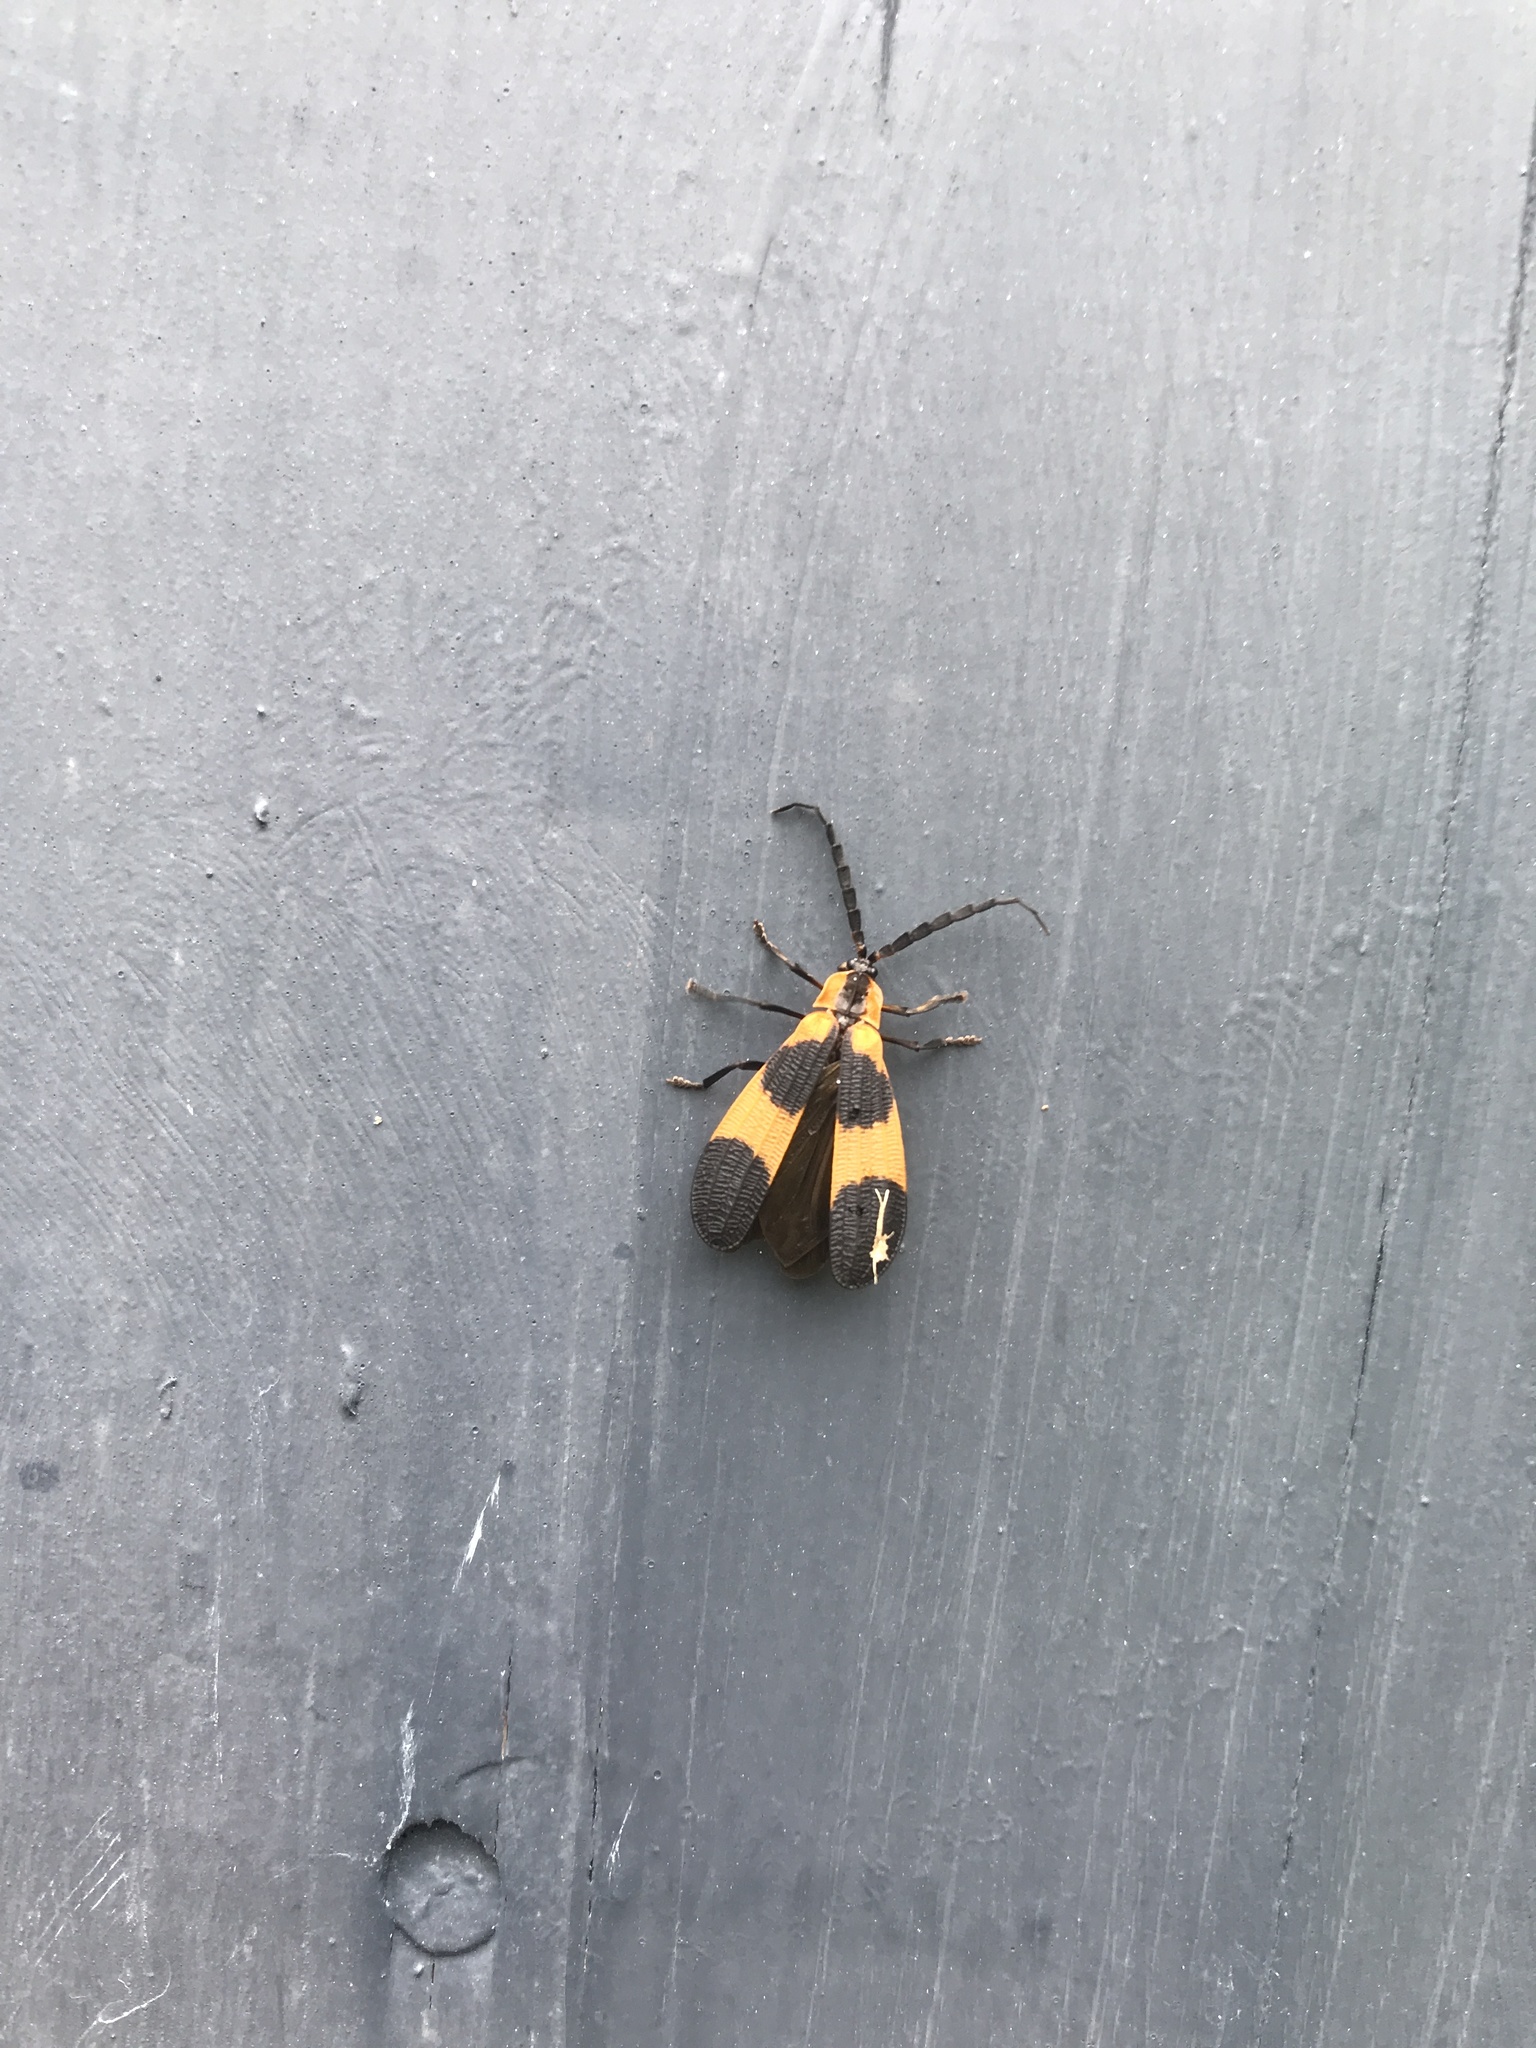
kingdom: Animalia
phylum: Arthropoda
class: Insecta
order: Coleoptera
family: Lycidae
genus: Calopteron
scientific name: Calopteron reticulatum
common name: Banded net-winged beetle
